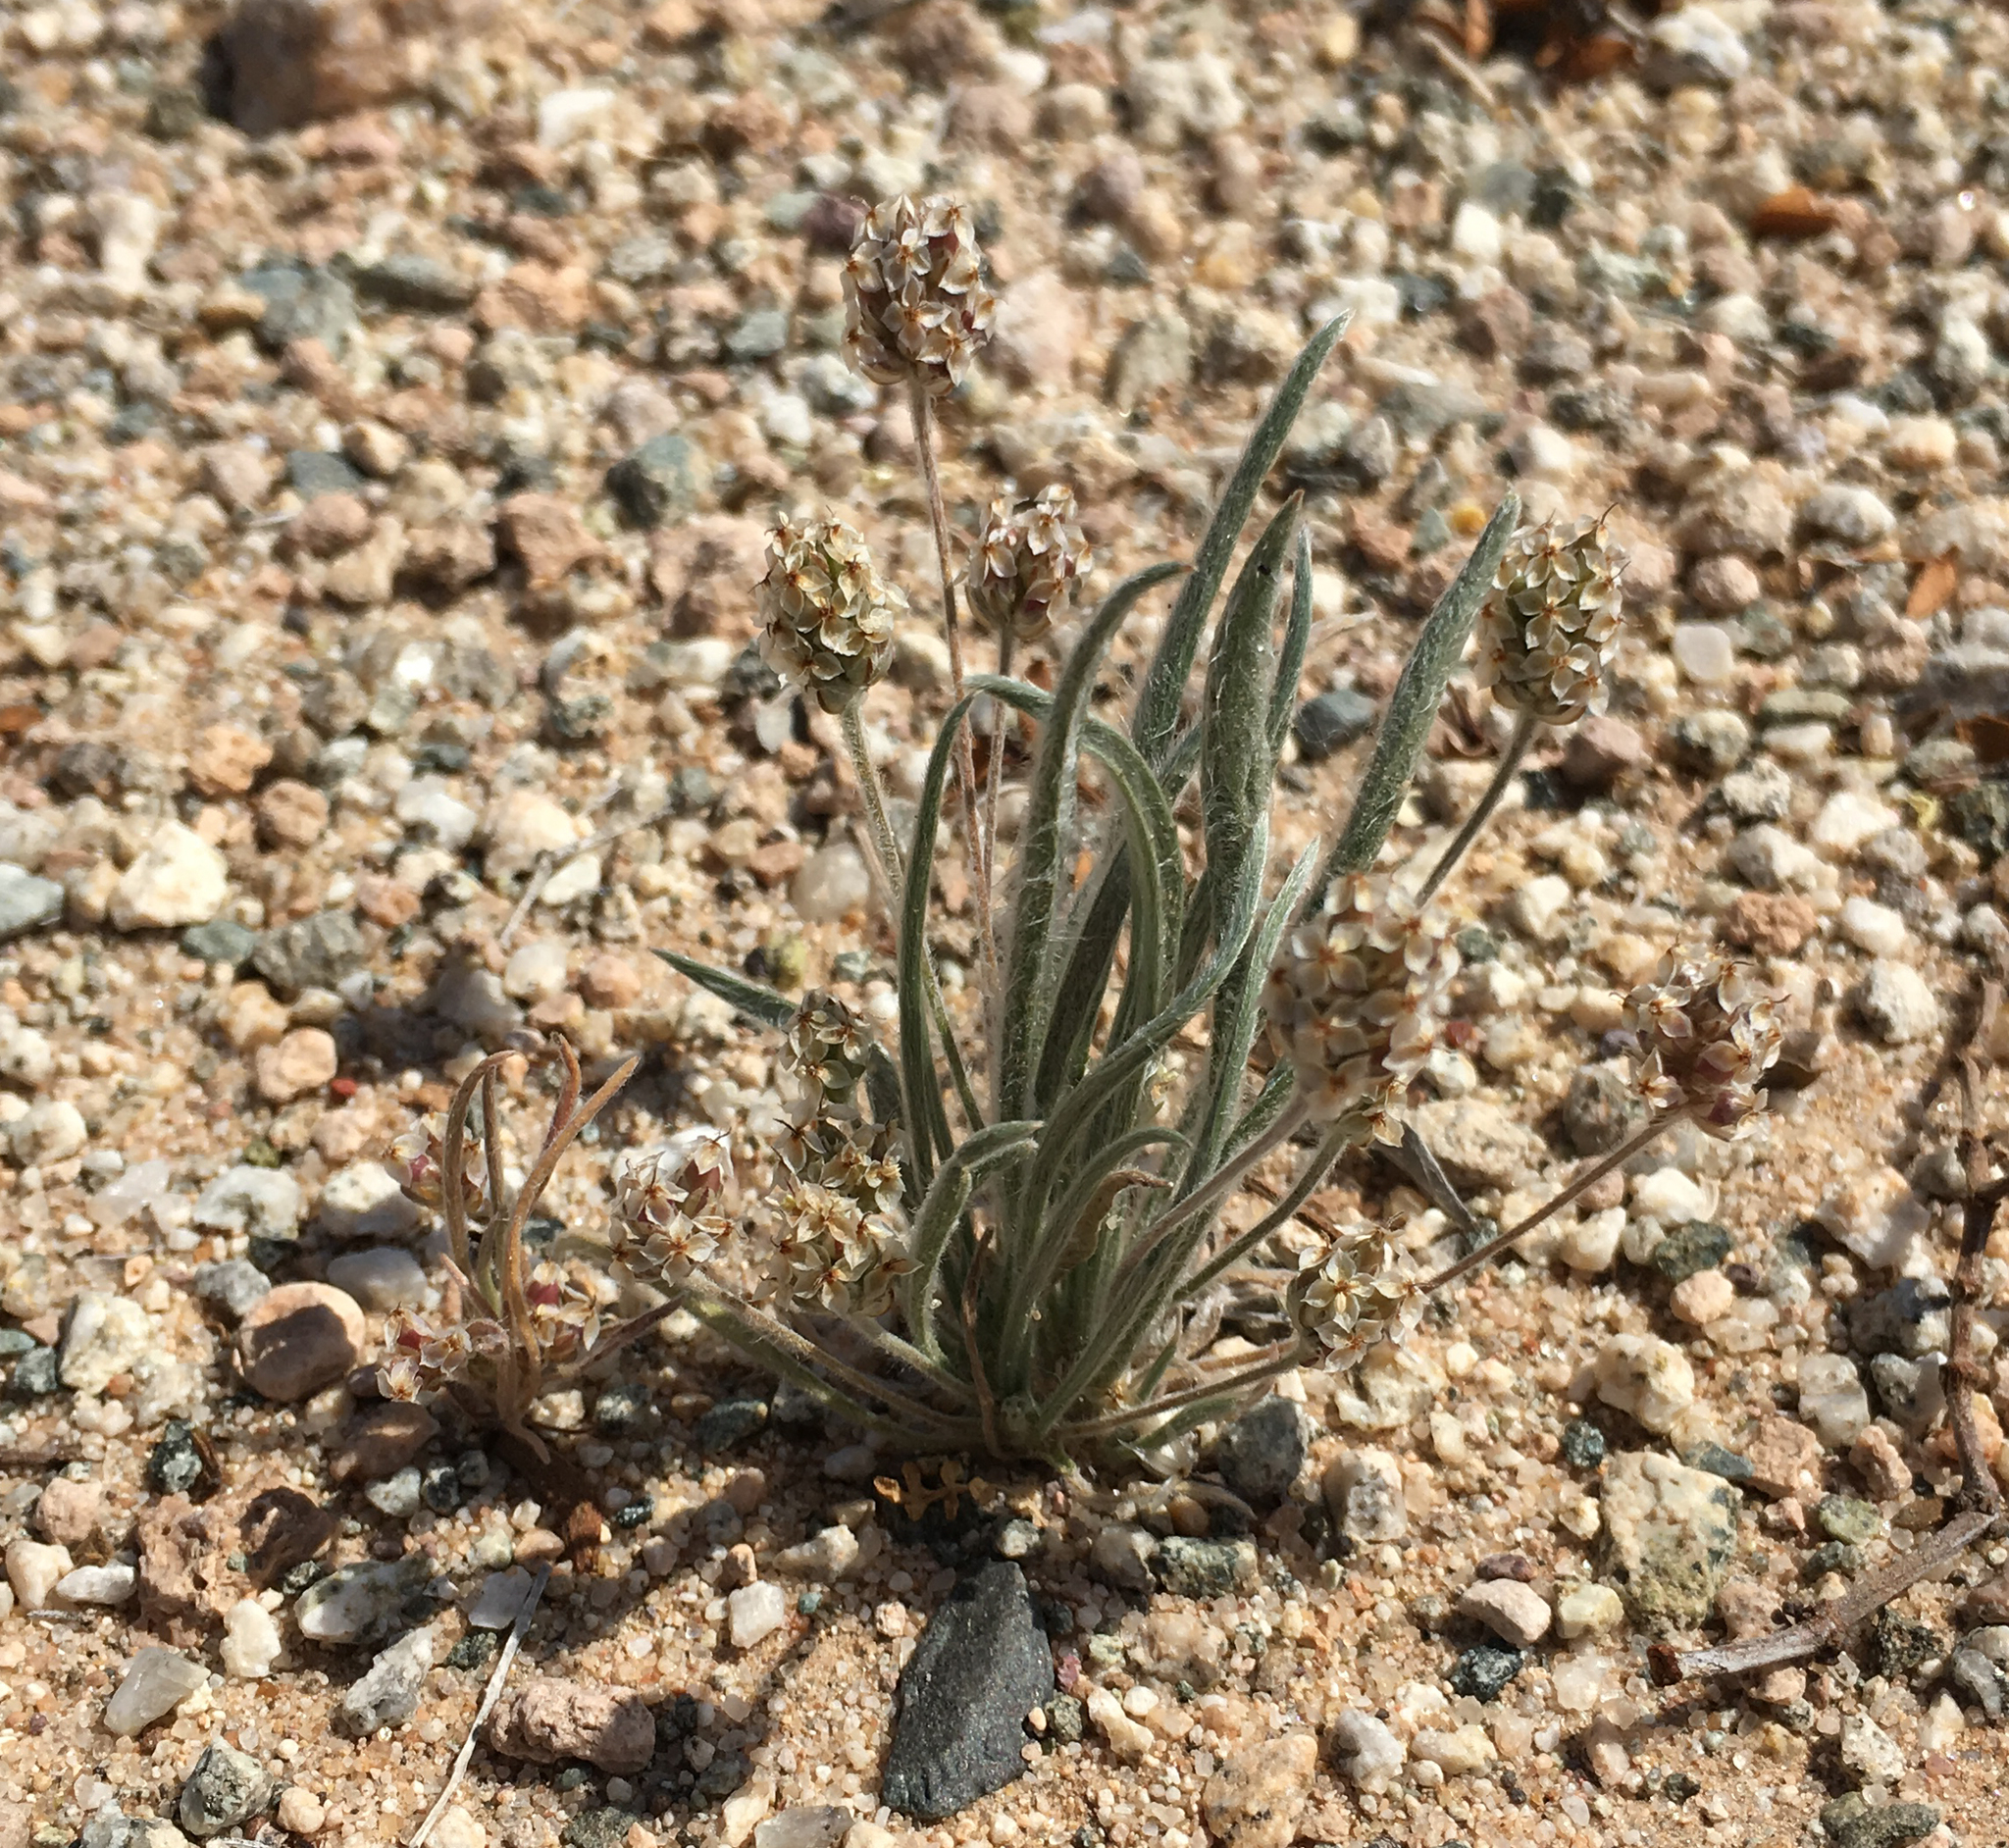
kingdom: Plantae
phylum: Tracheophyta
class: Magnoliopsida
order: Lamiales
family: Plantaginaceae
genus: Plantago
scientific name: Plantago ovata
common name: Blond plantain
